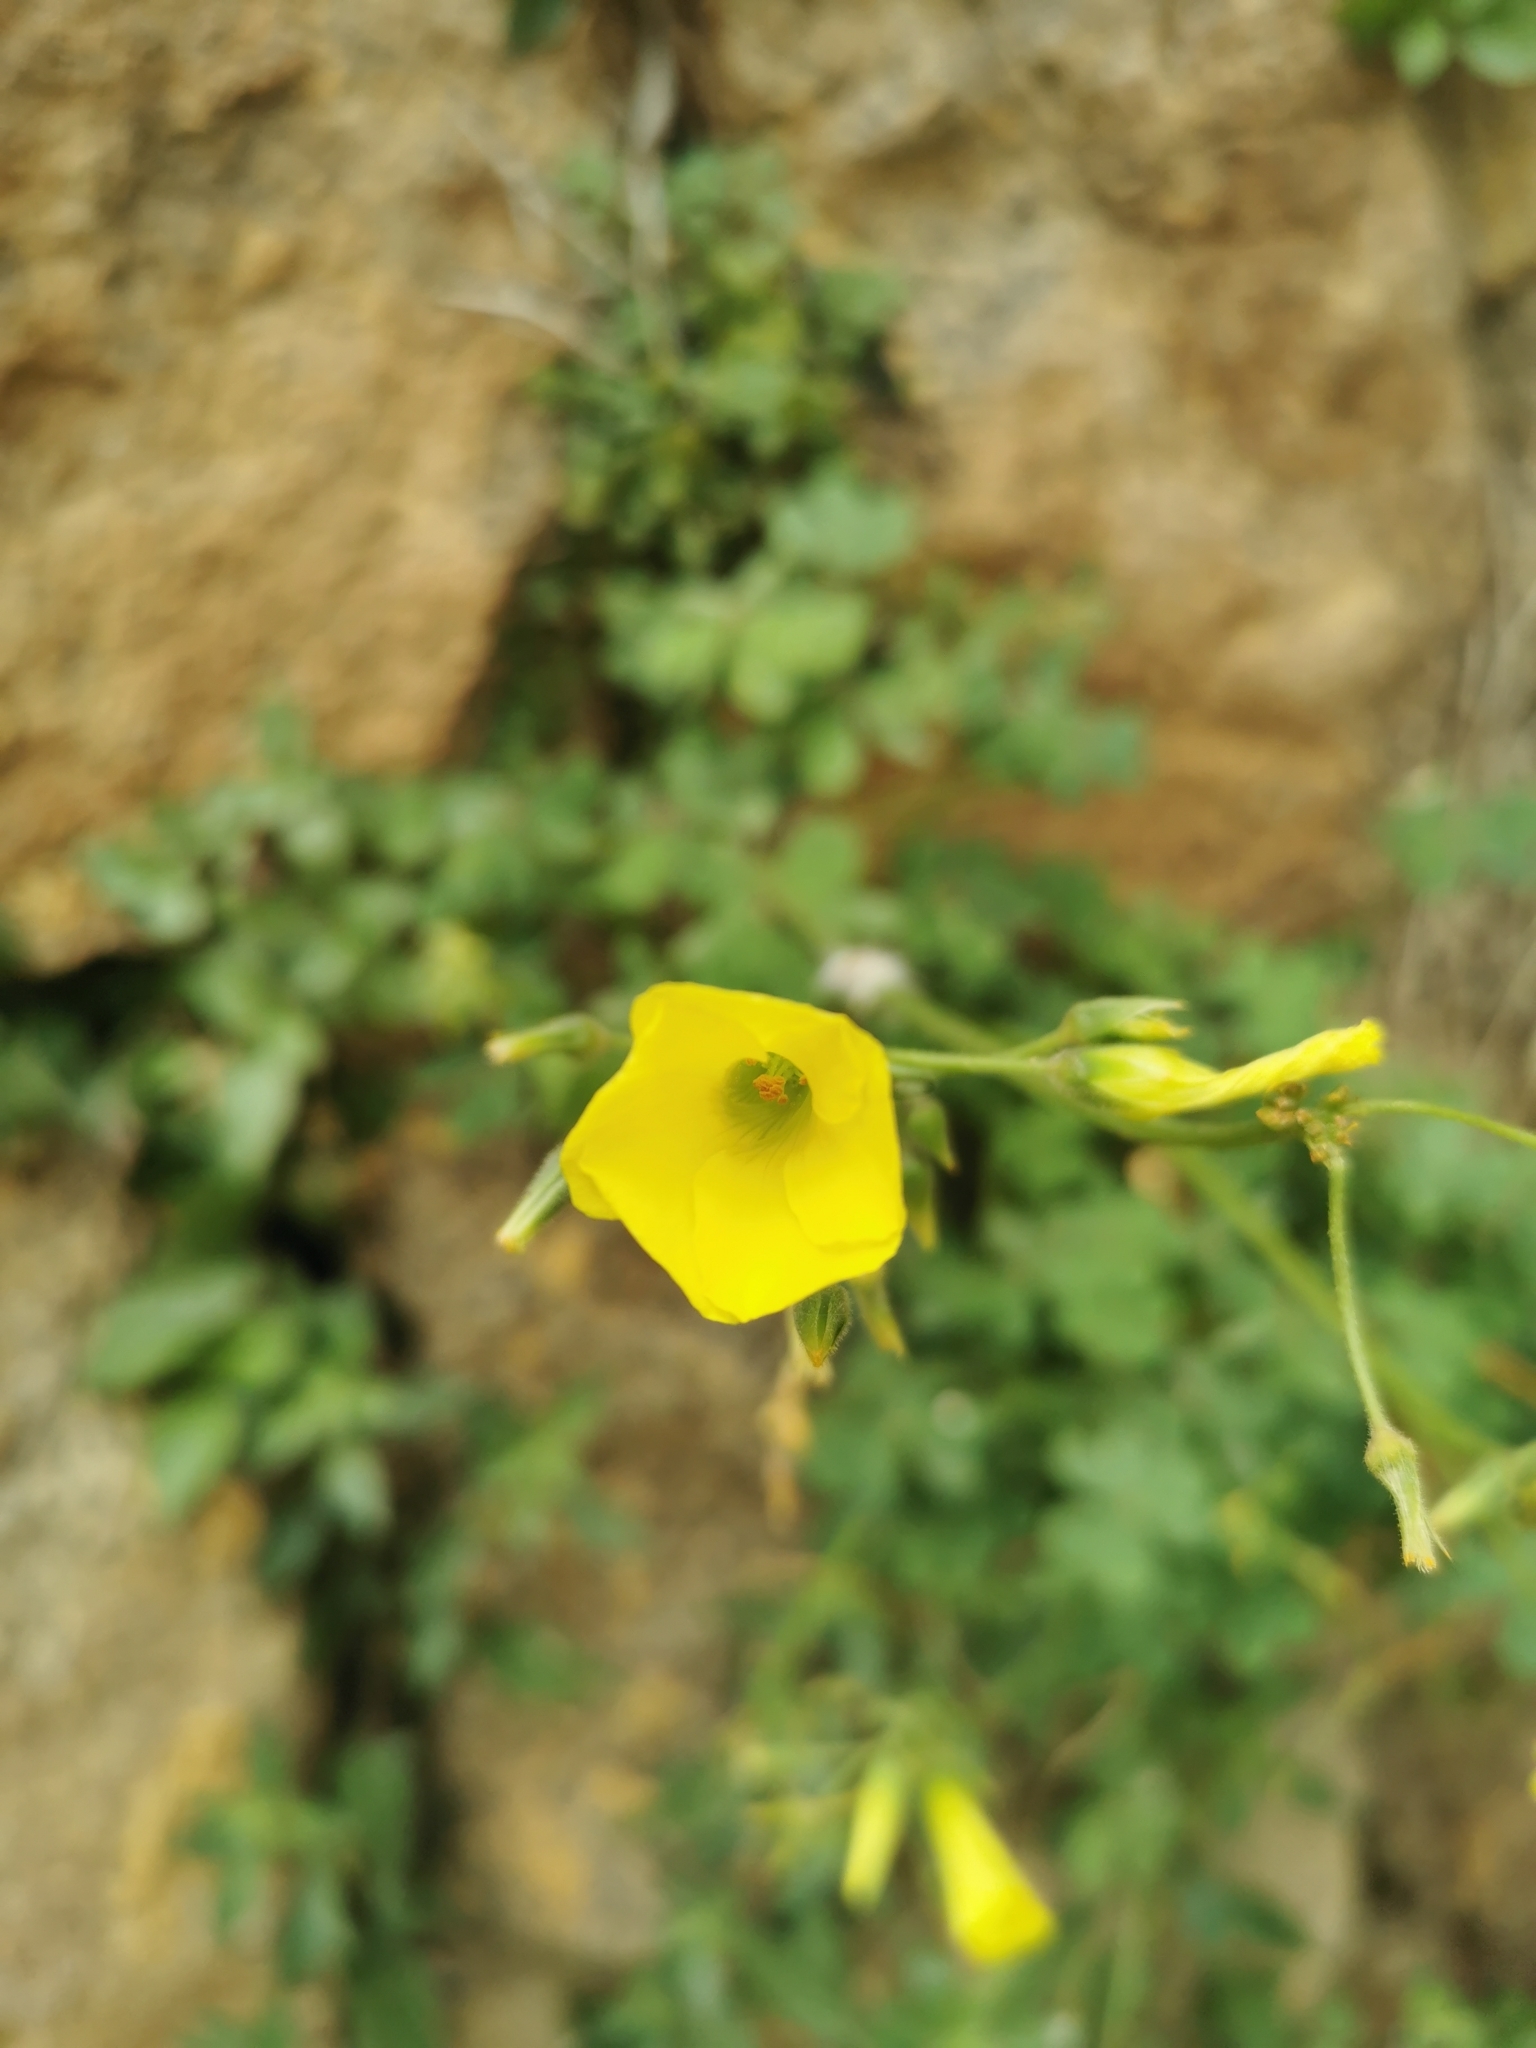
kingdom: Plantae
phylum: Tracheophyta
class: Magnoliopsida
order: Oxalidales
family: Oxalidaceae
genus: Oxalis
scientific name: Oxalis pes-caprae
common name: Bermuda-buttercup
